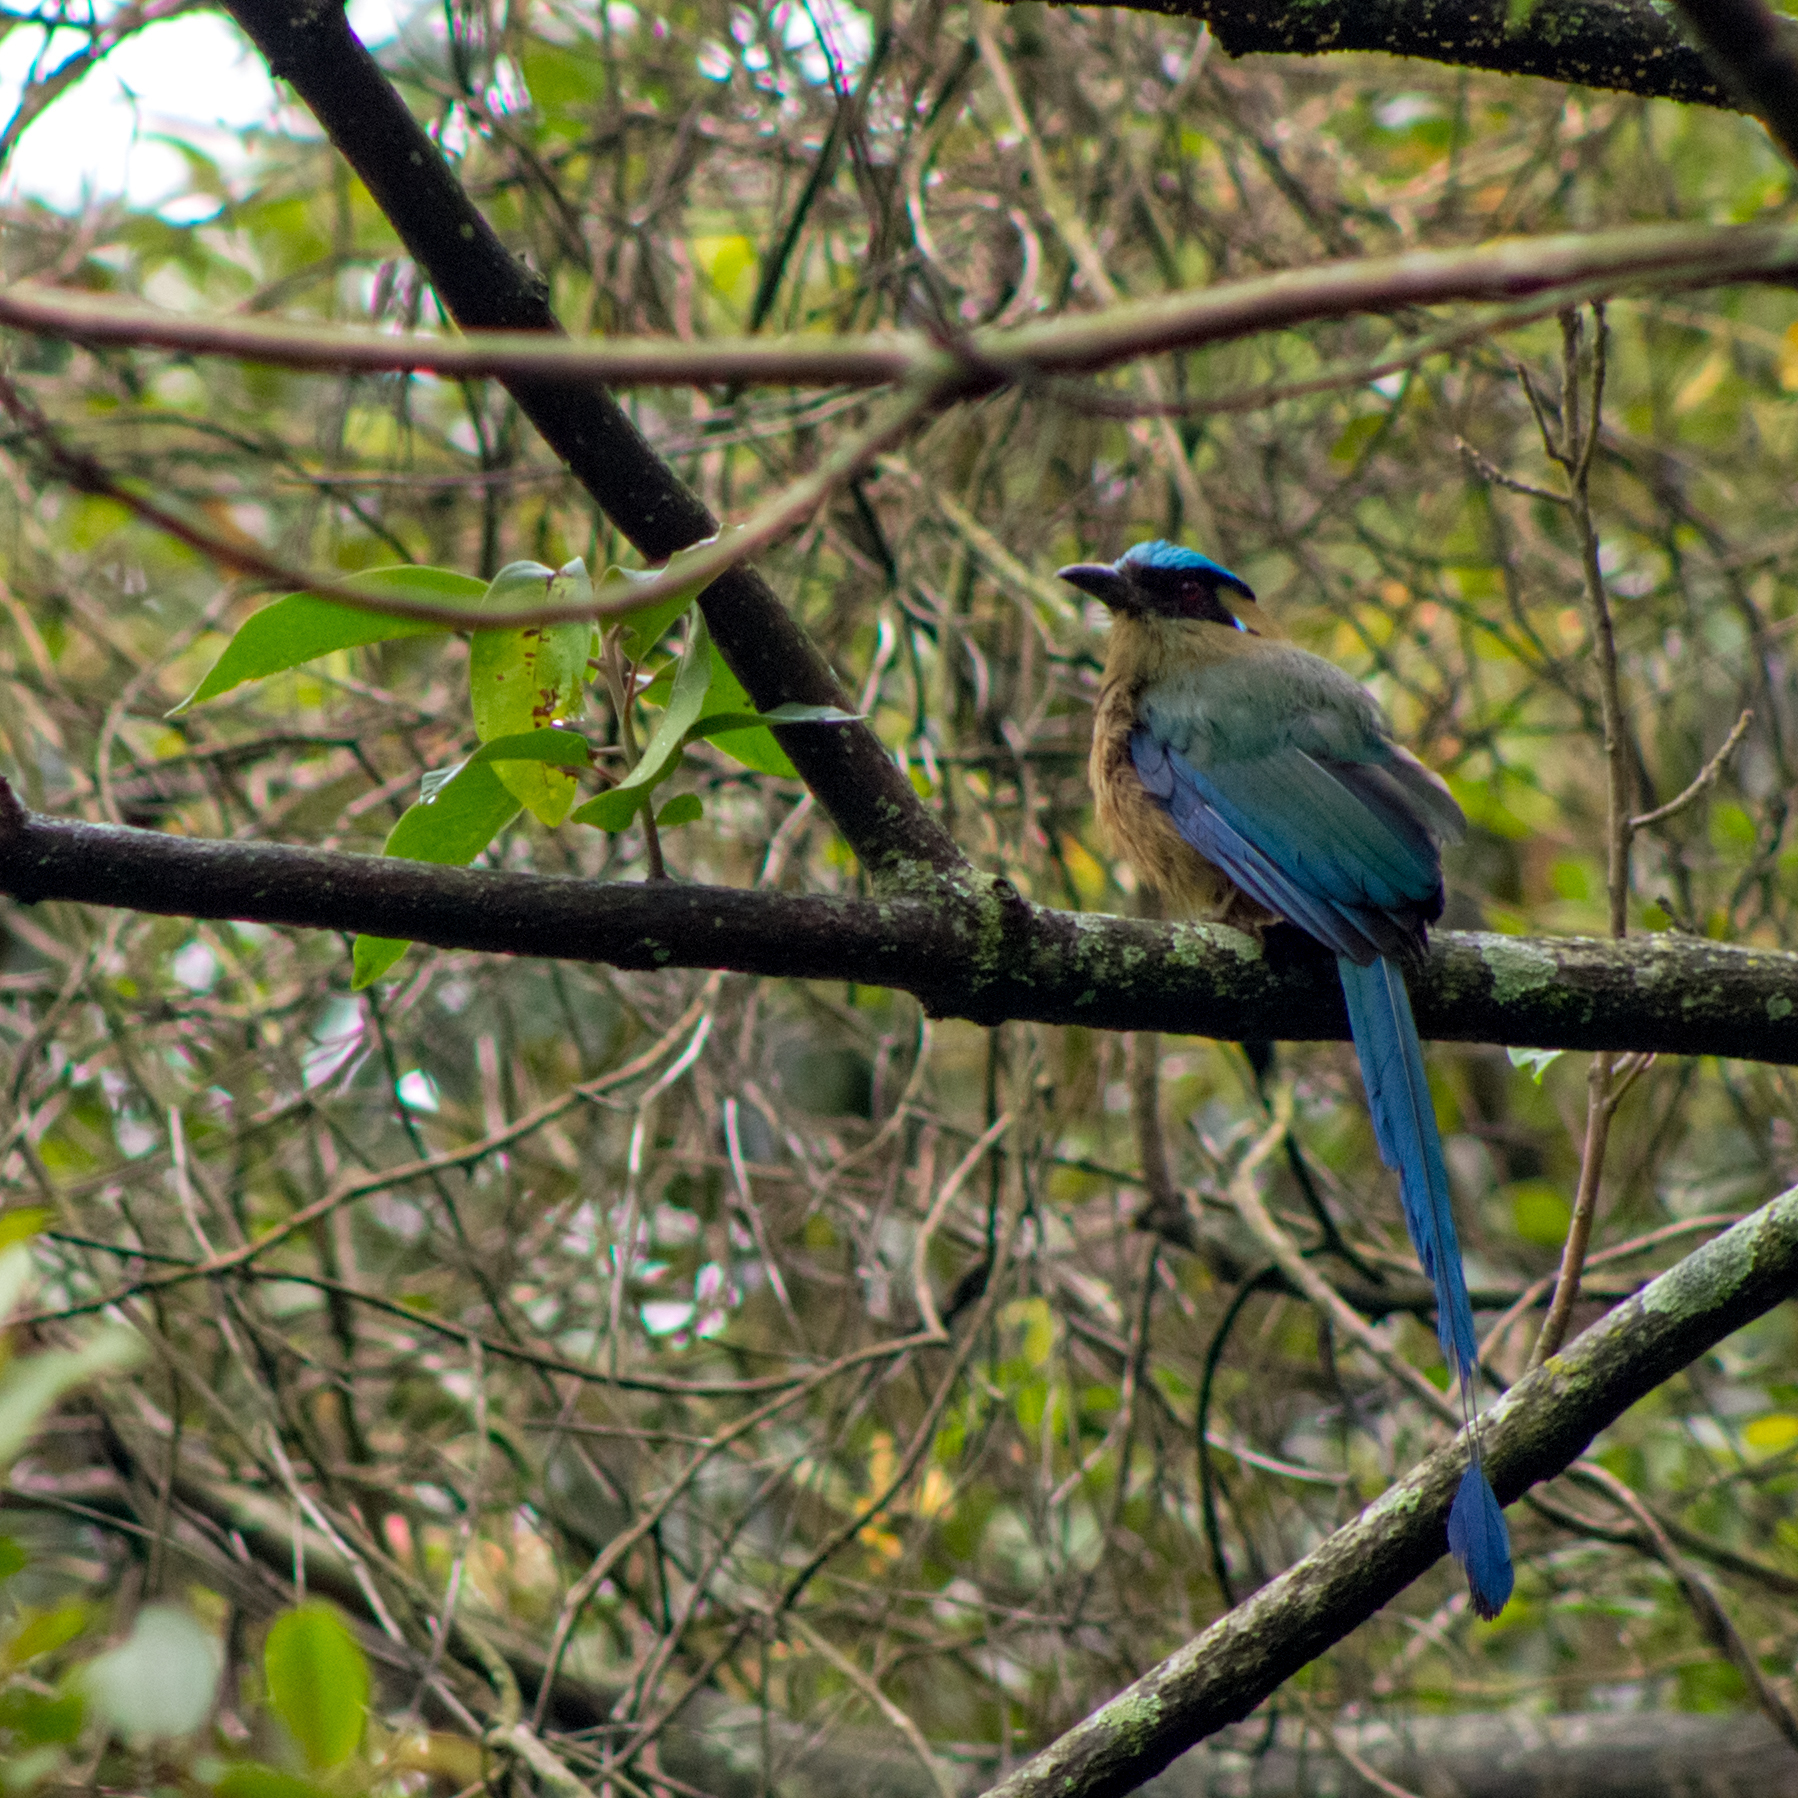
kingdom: Animalia
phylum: Chordata
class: Aves
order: Coraciiformes
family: Momotidae
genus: Momotus
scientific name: Momotus aequatorialis
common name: Andean motmot
